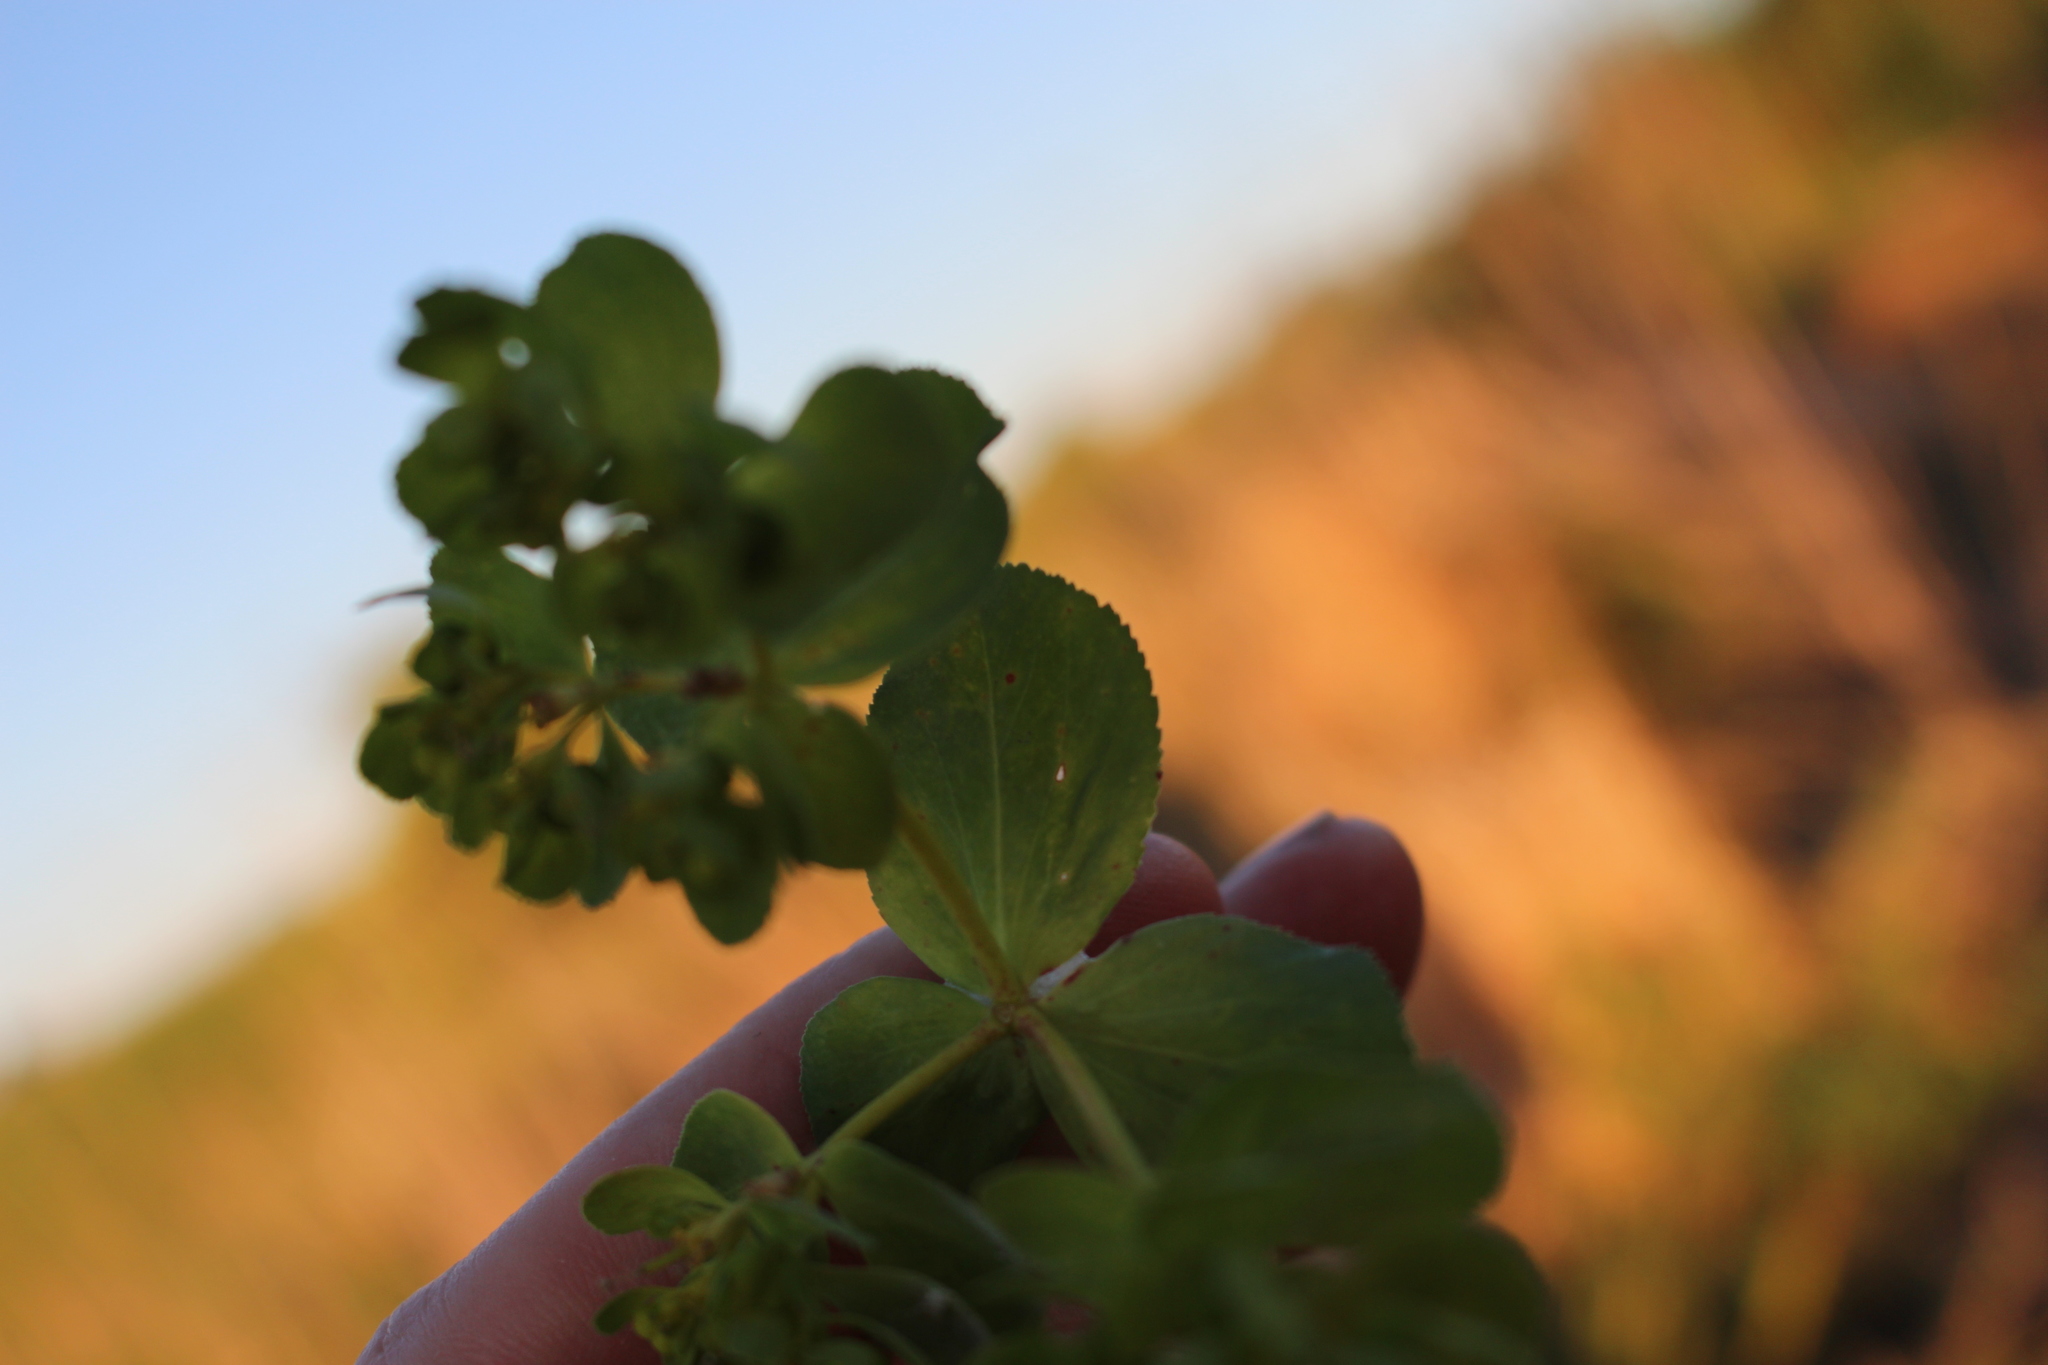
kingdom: Plantae
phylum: Tracheophyta
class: Magnoliopsida
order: Malpighiales
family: Euphorbiaceae
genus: Euphorbia
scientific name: Euphorbia helioscopia
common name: Sun spurge
